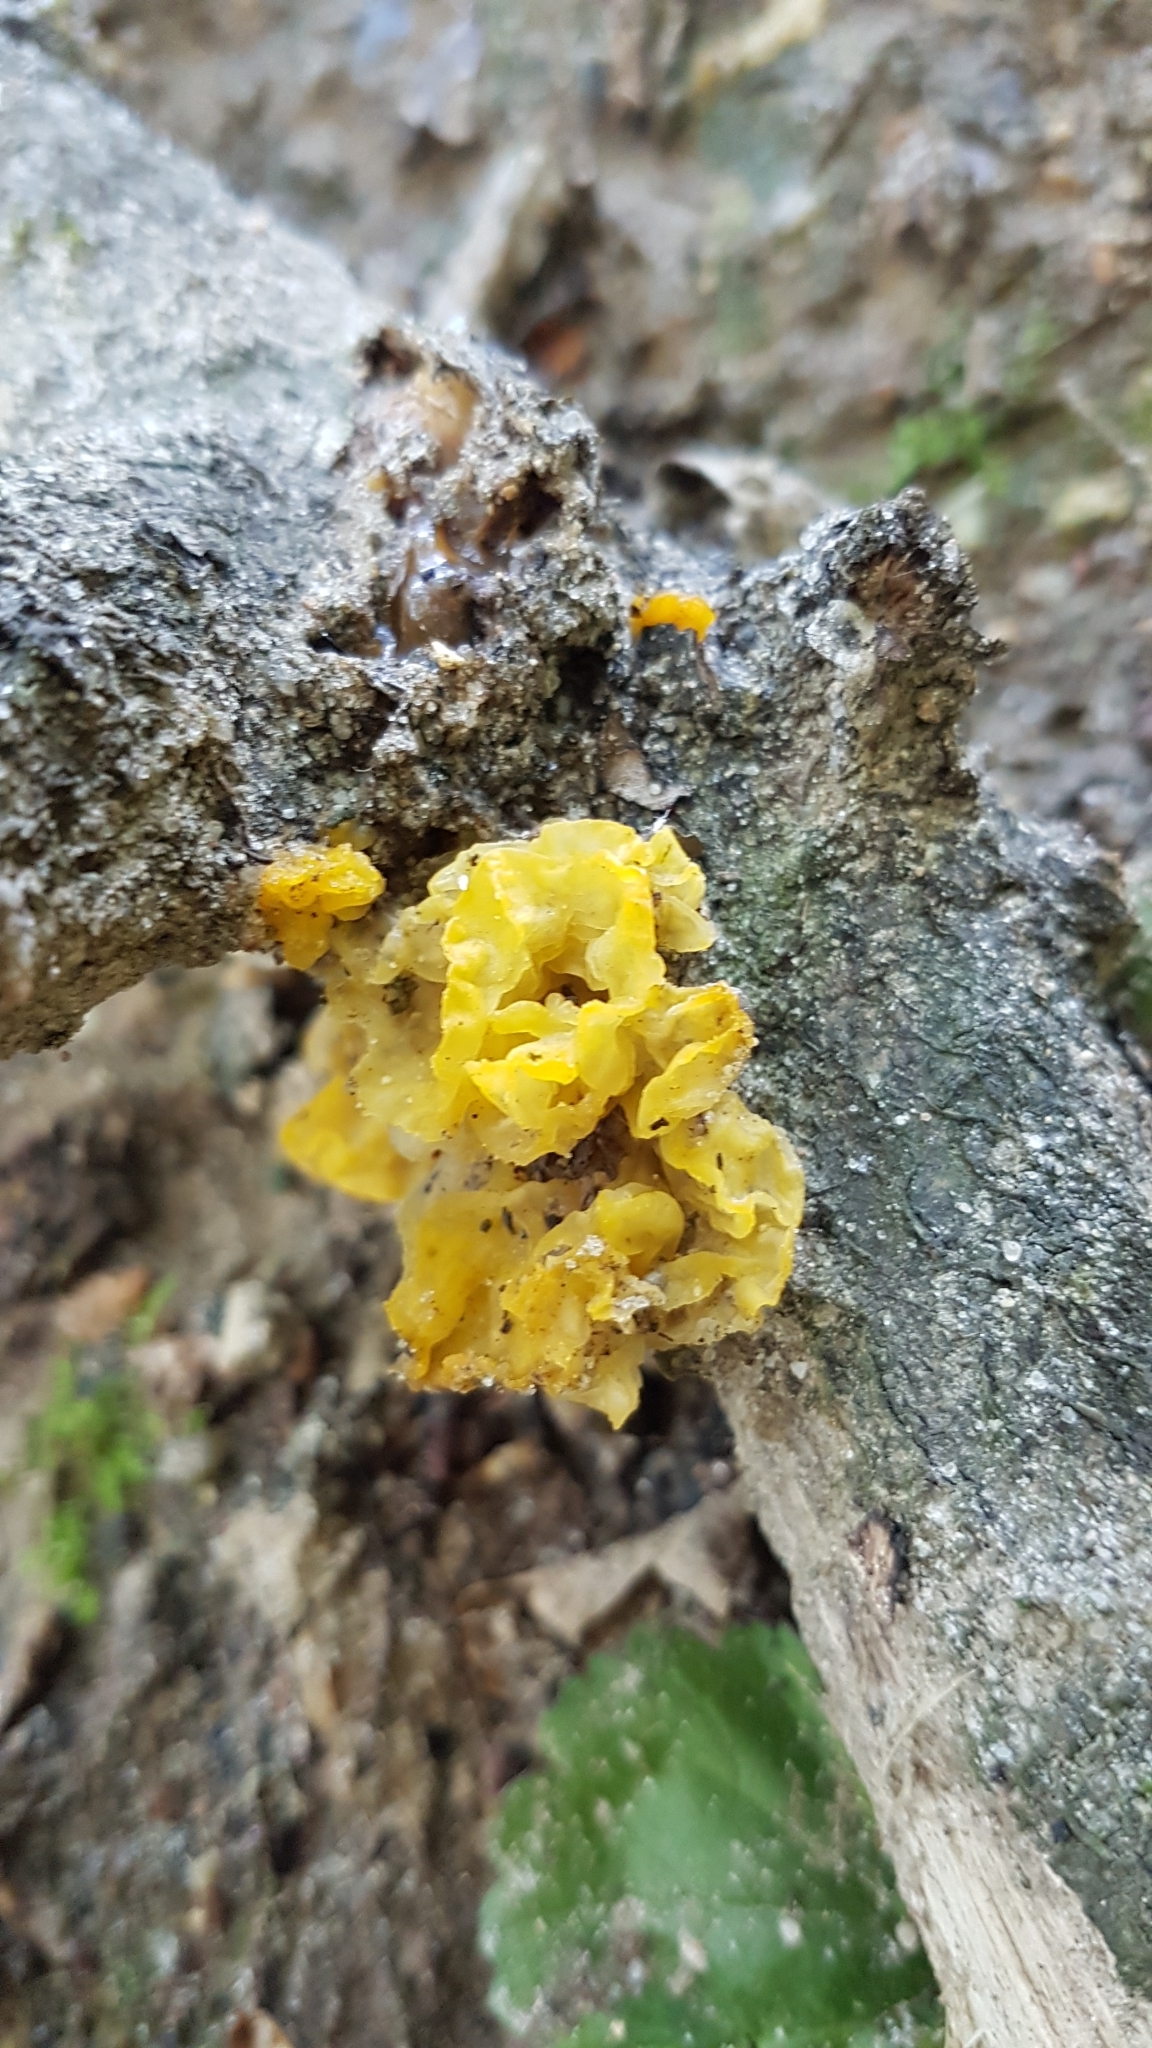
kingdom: Fungi
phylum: Basidiomycota
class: Tremellomycetes
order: Tremellales
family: Tremellaceae
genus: Tremella
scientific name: Tremella mesenterica
